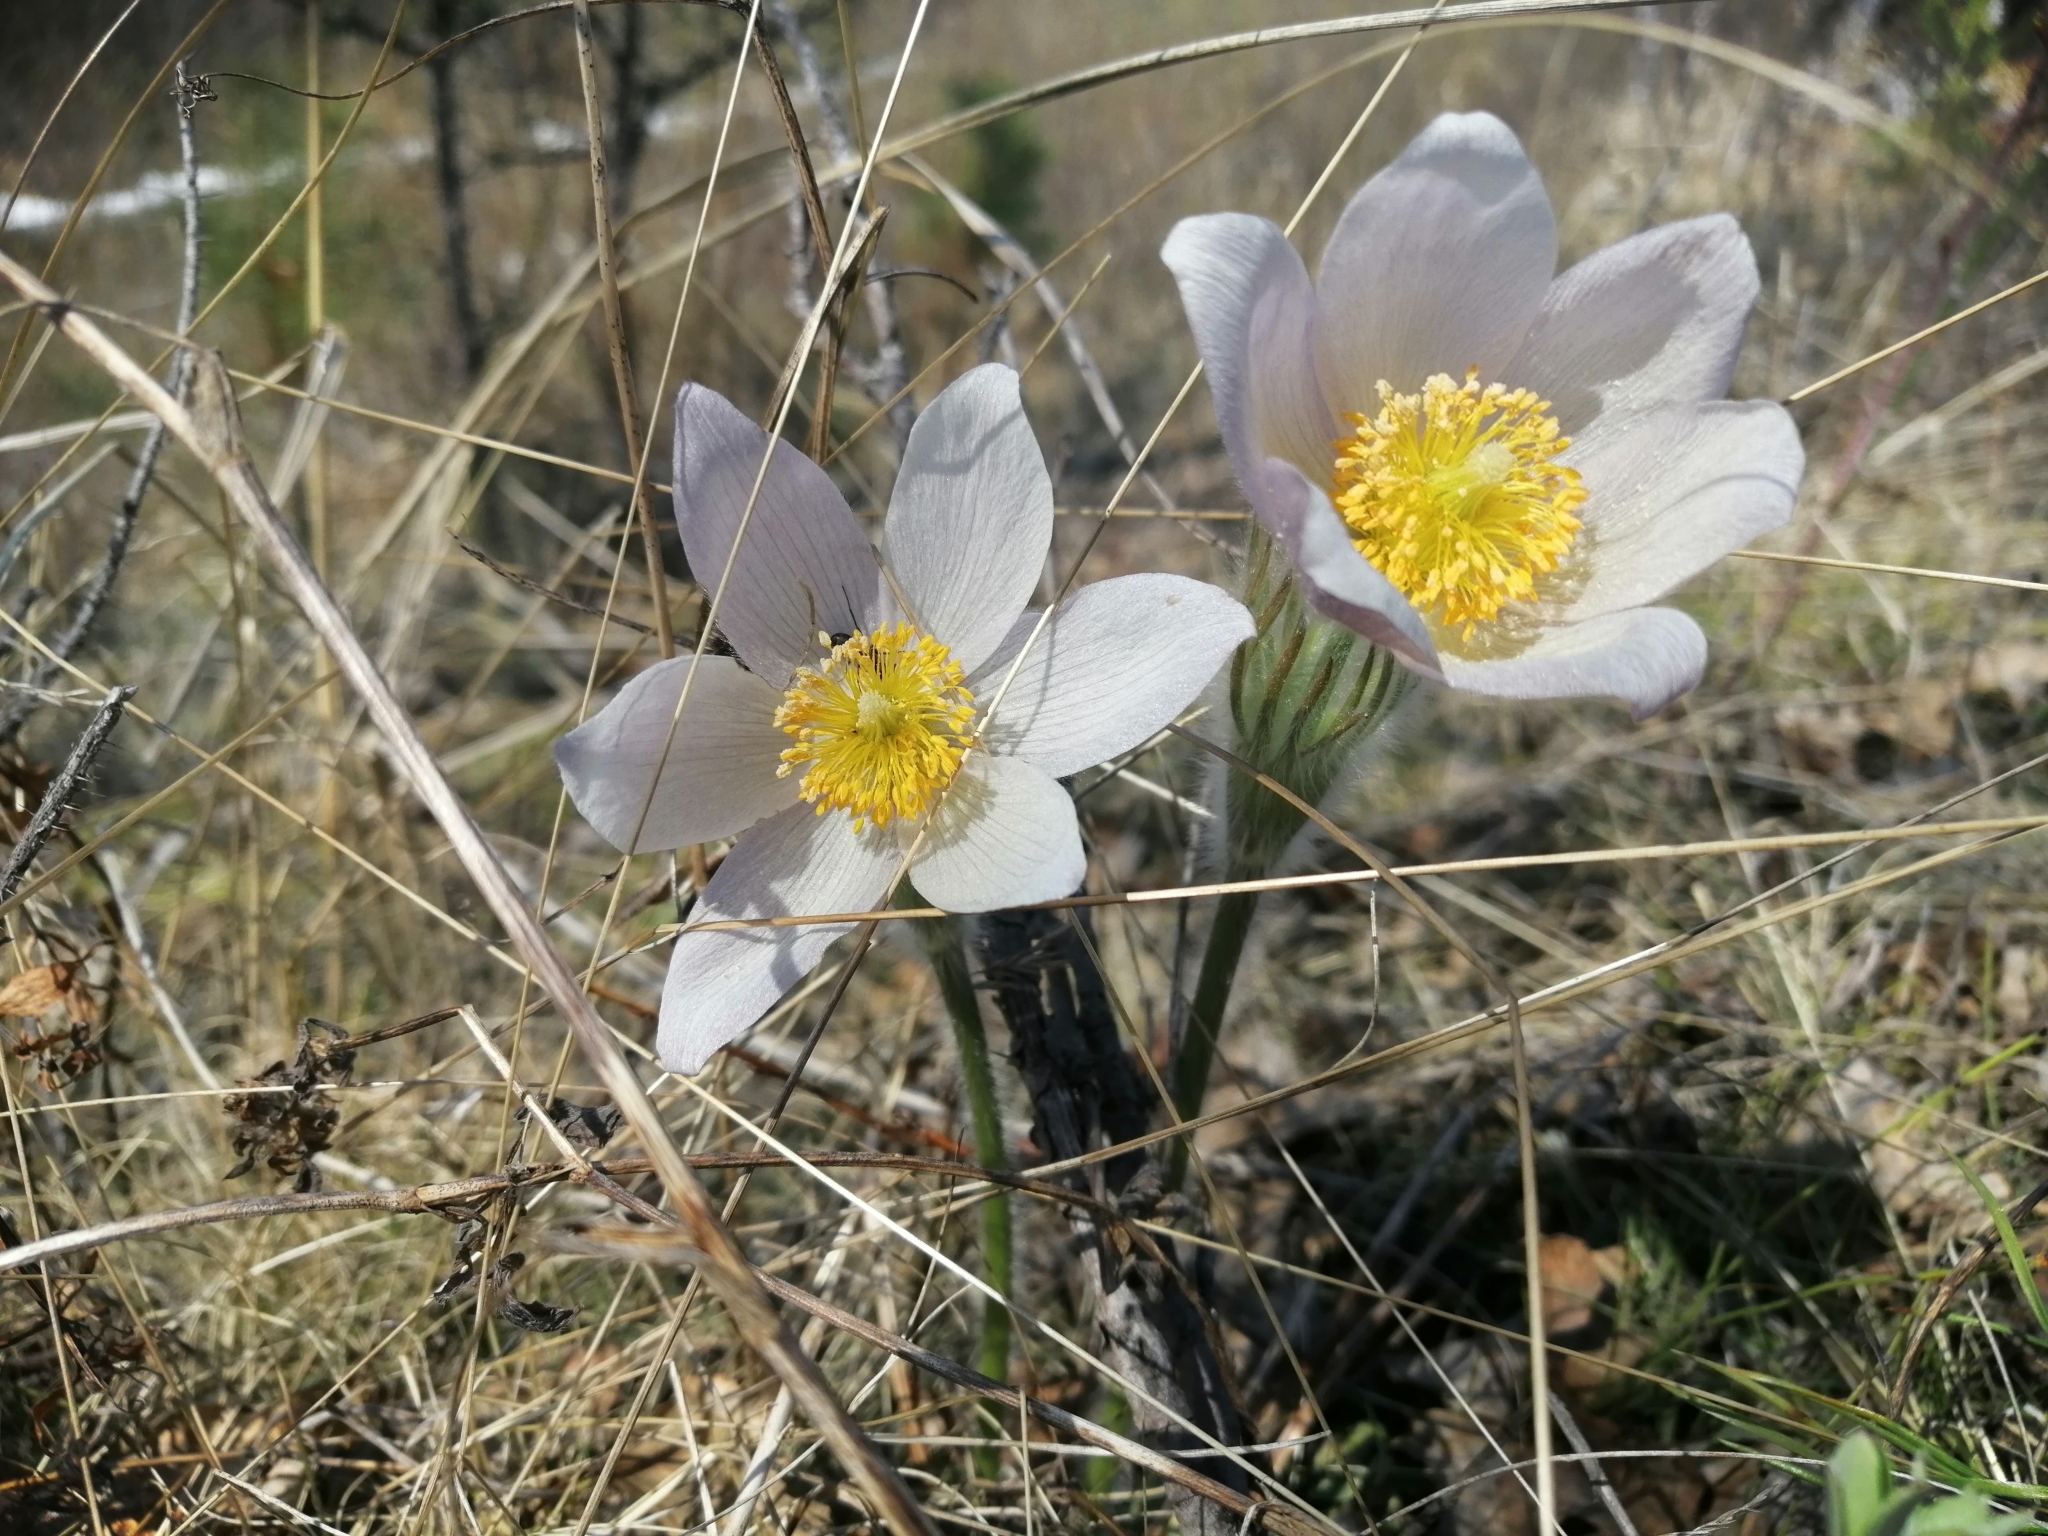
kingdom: Plantae
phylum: Tracheophyta
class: Magnoliopsida
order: Ranunculales
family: Ranunculaceae
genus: Pulsatilla
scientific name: Pulsatilla patens
